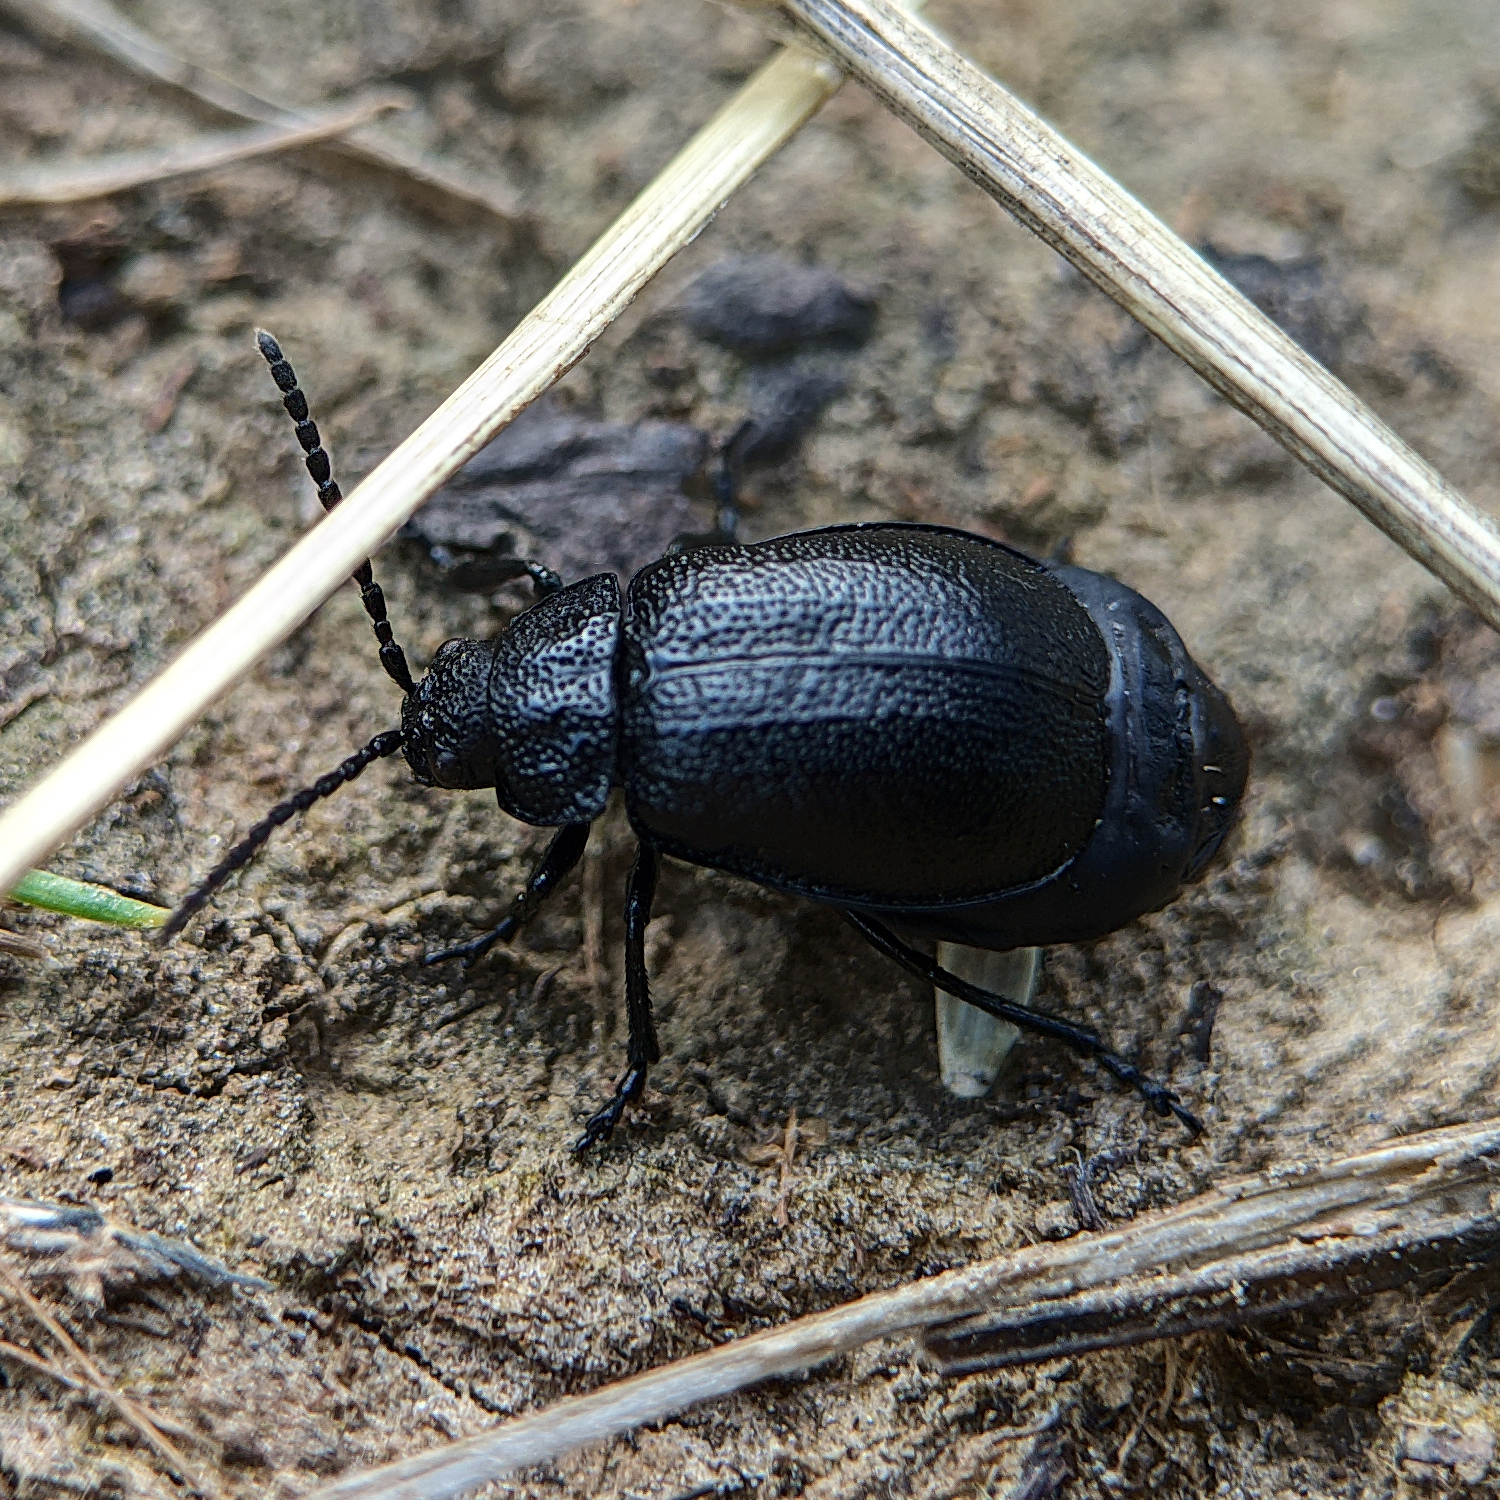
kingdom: Animalia
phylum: Arthropoda
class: Insecta
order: Coleoptera
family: Chrysomelidae
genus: Galeruca
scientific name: Galeruca tanaceti
